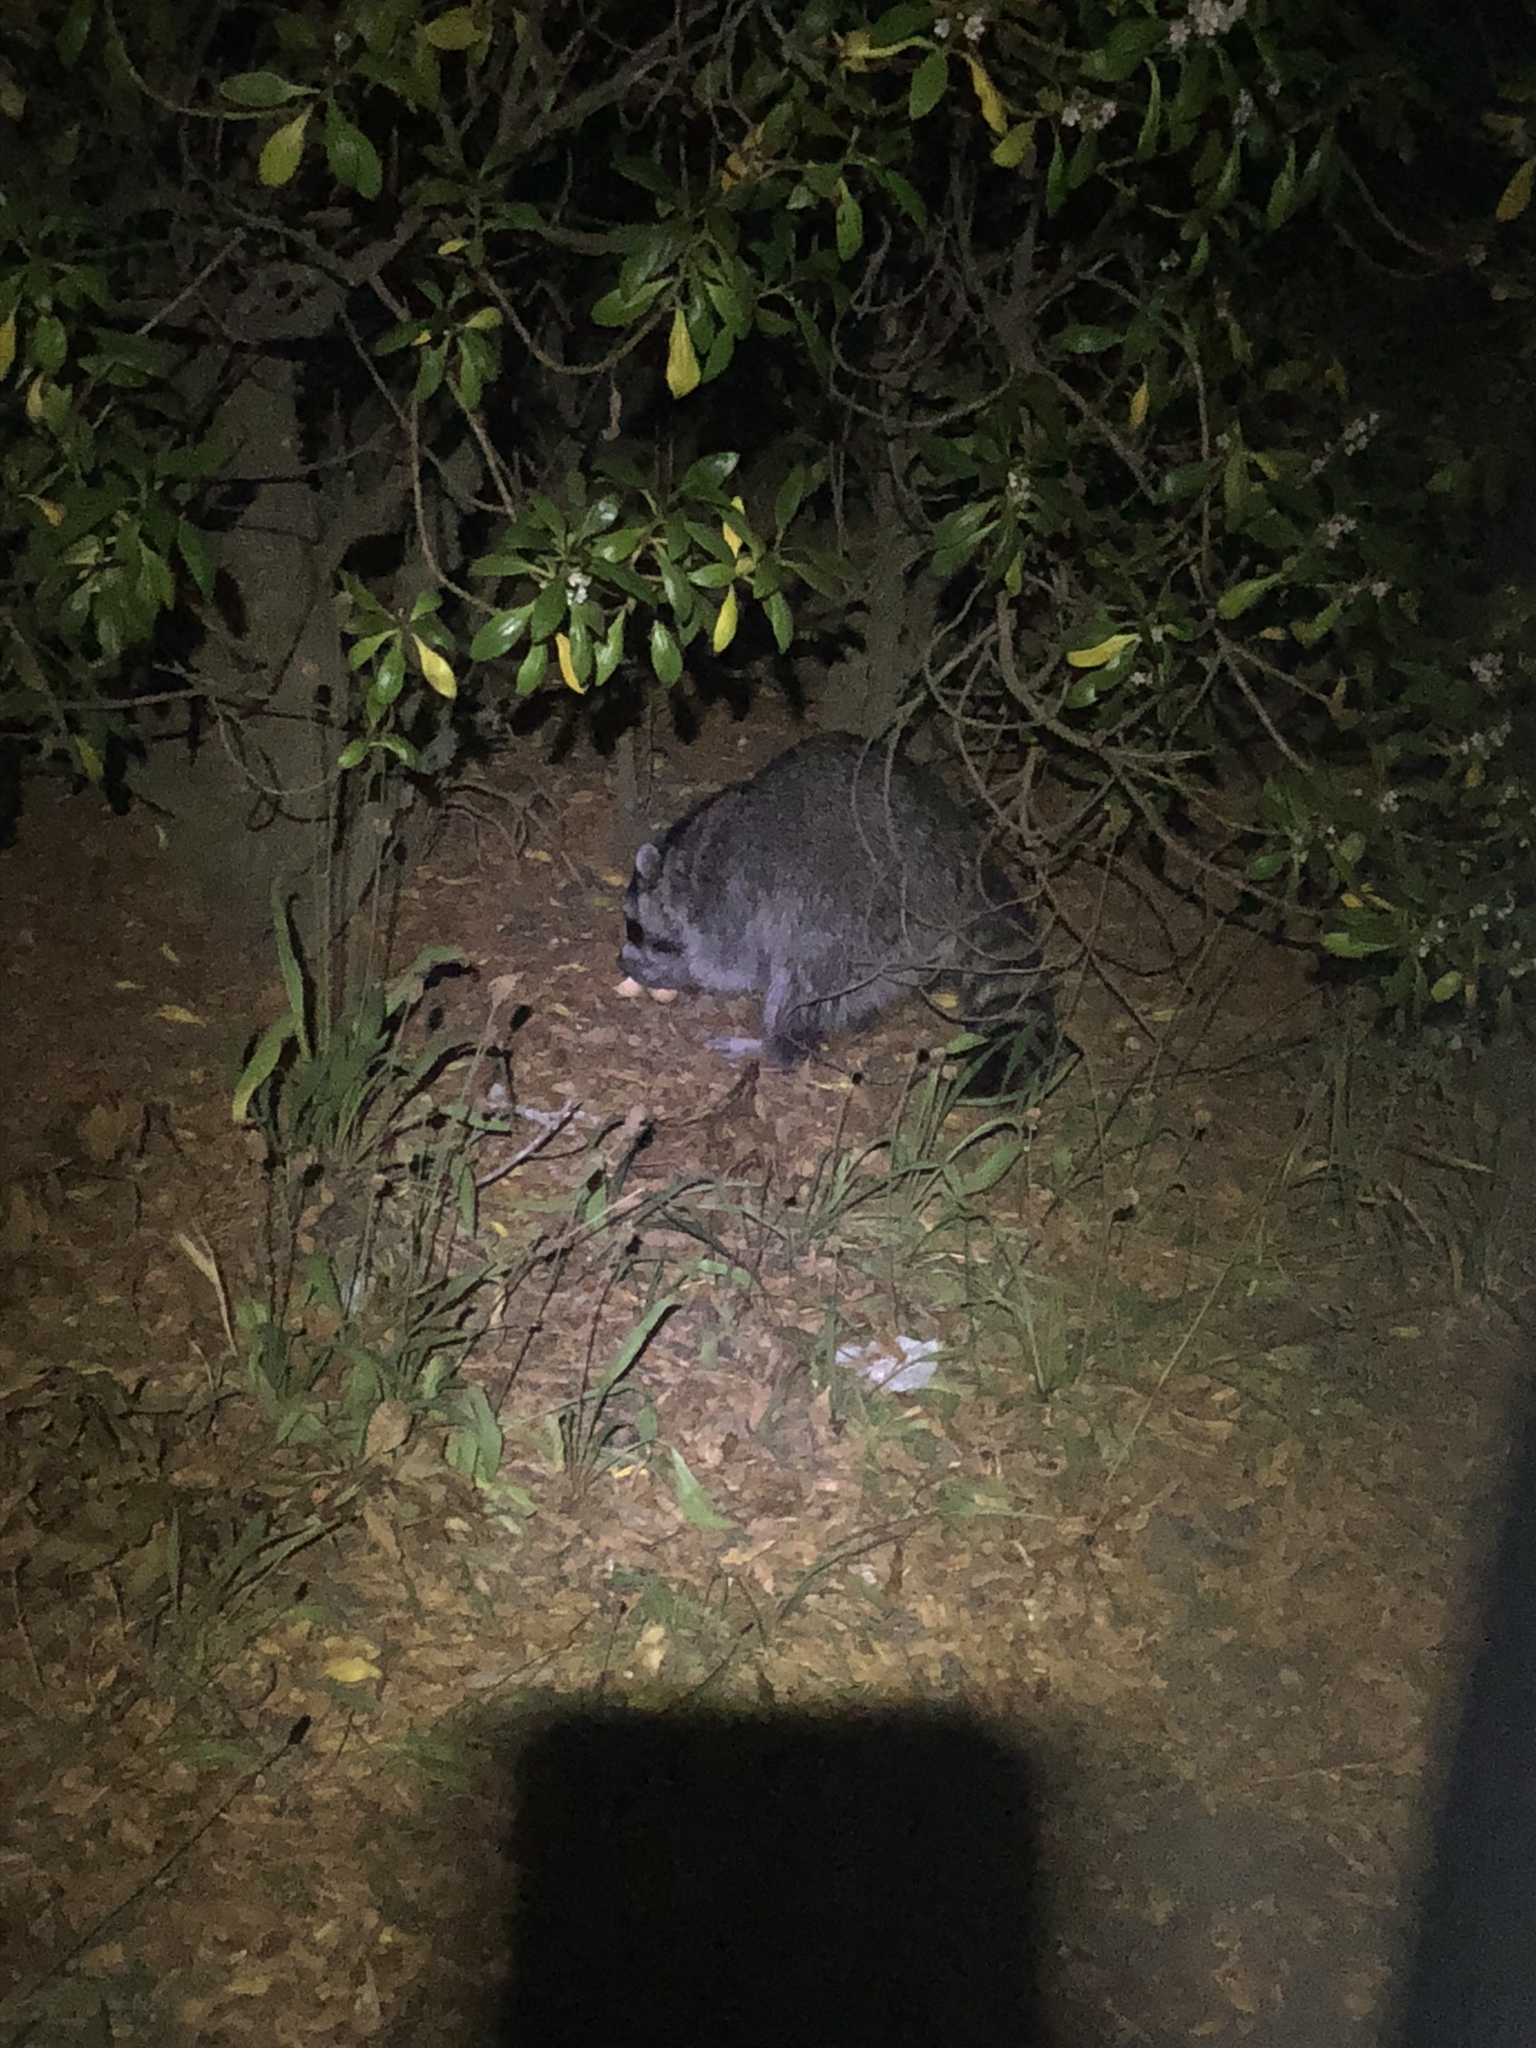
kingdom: Animalia
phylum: Chordata
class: Mammalia
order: Carnivora
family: Procyonidae
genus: Procyon
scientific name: Procyon lotor
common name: Raccoon
